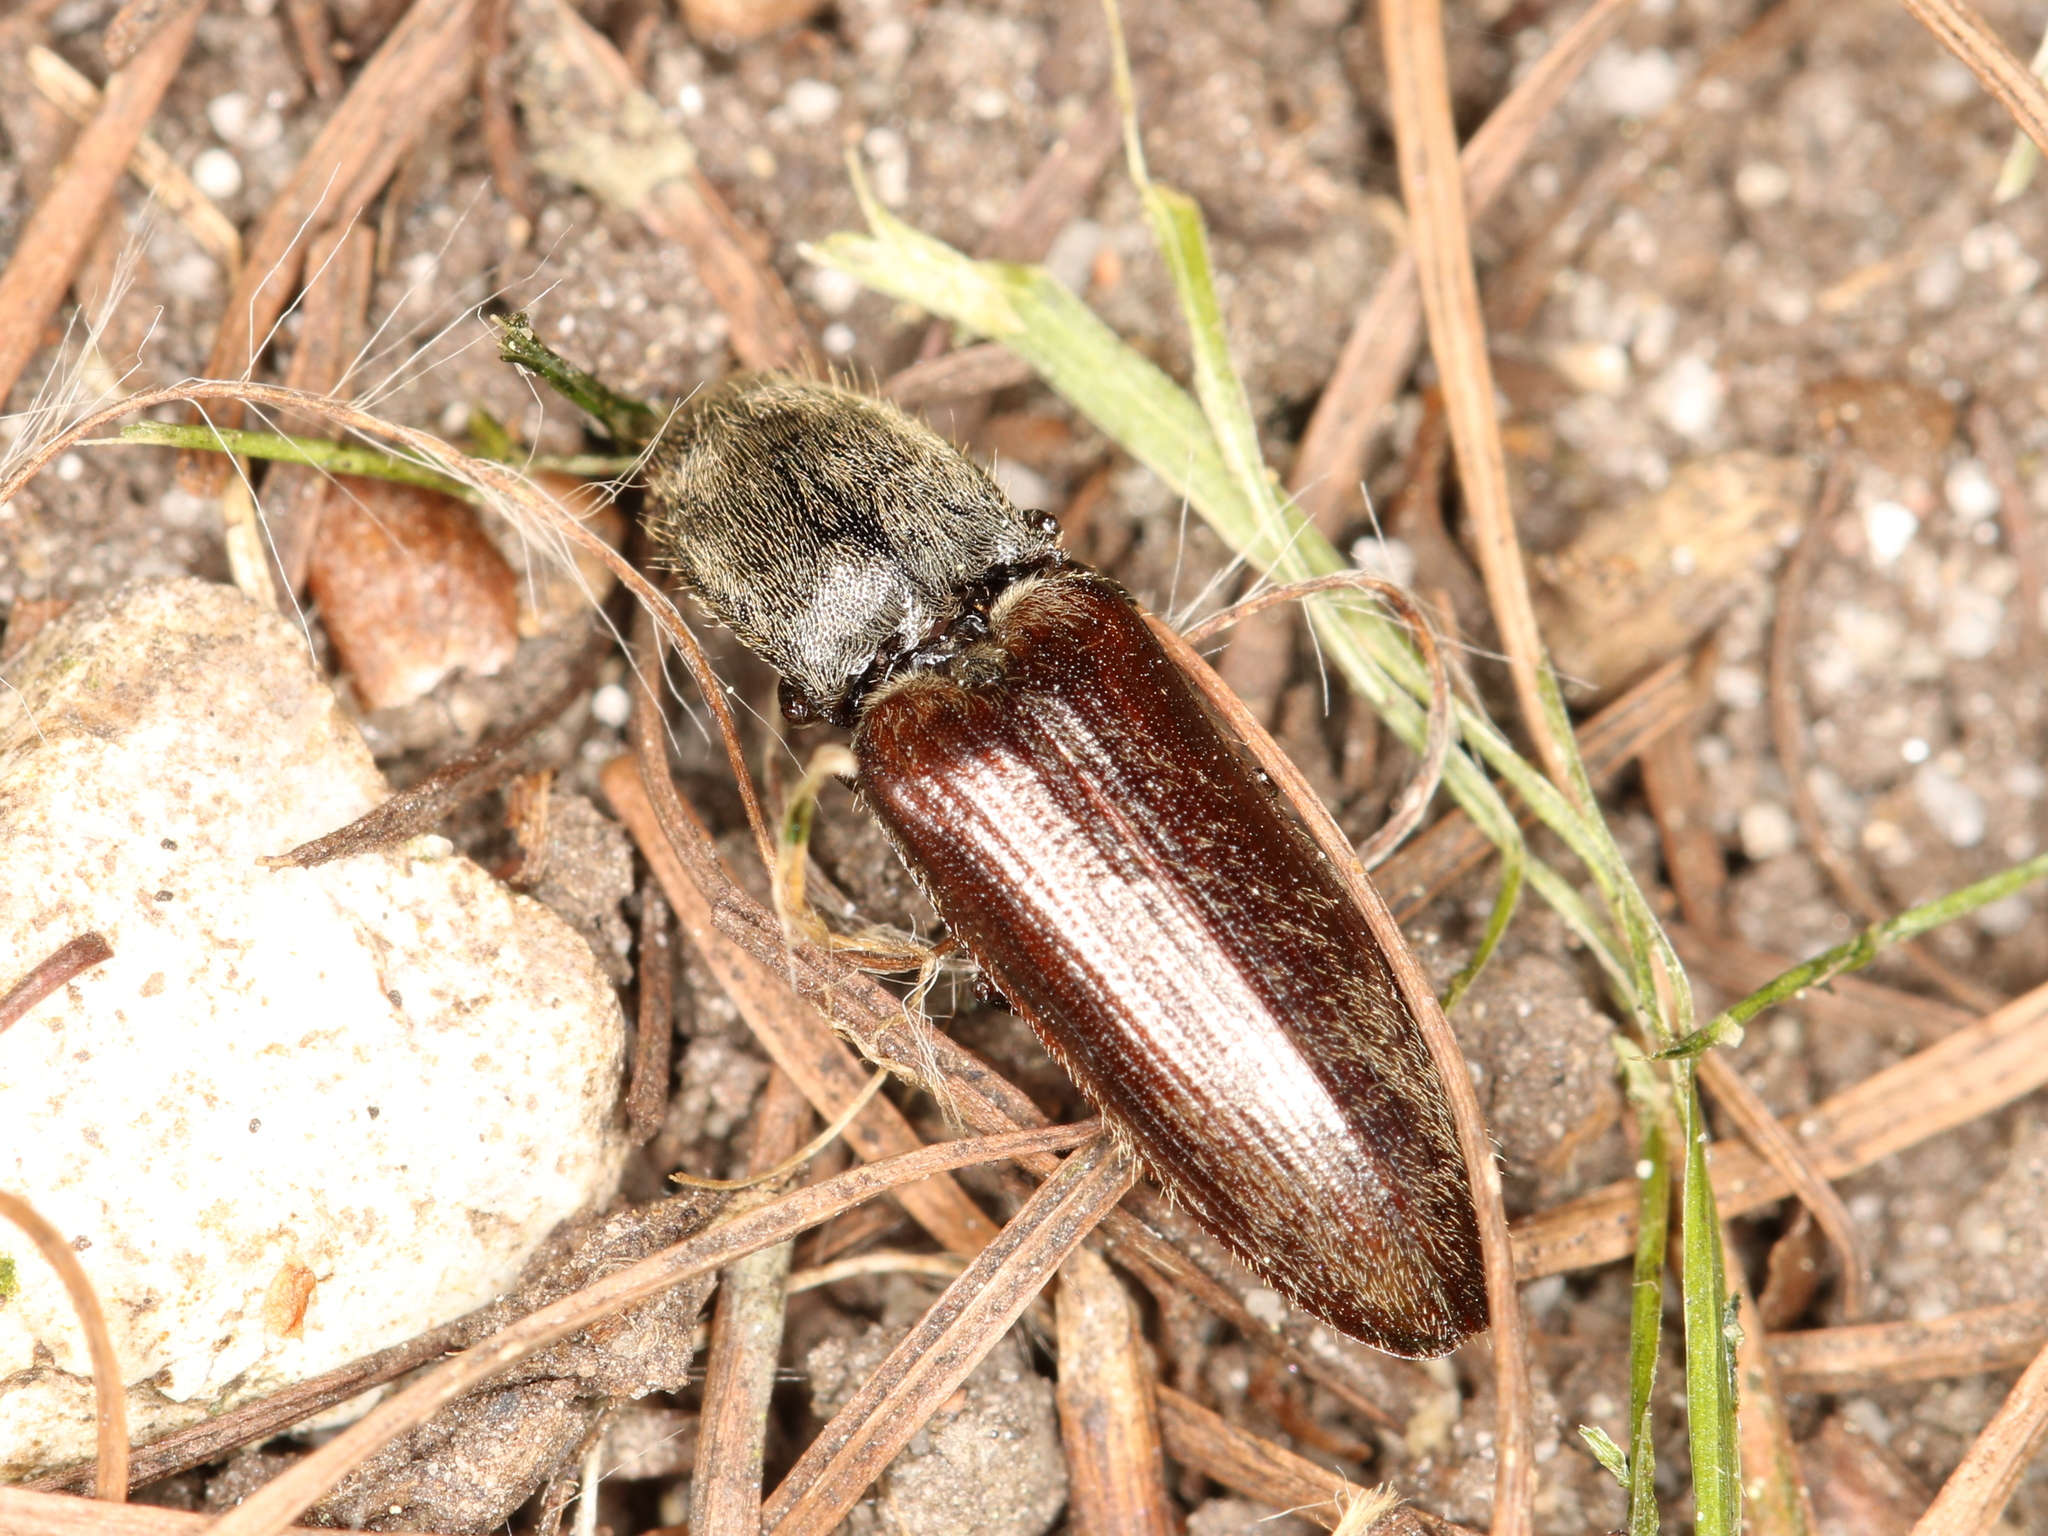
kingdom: Animalia
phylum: Arthropoda
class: Insecta
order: Coleoptera
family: Elateridae
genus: Athous
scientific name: Athous haemorrhoidalis
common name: Red-brown click beetle
